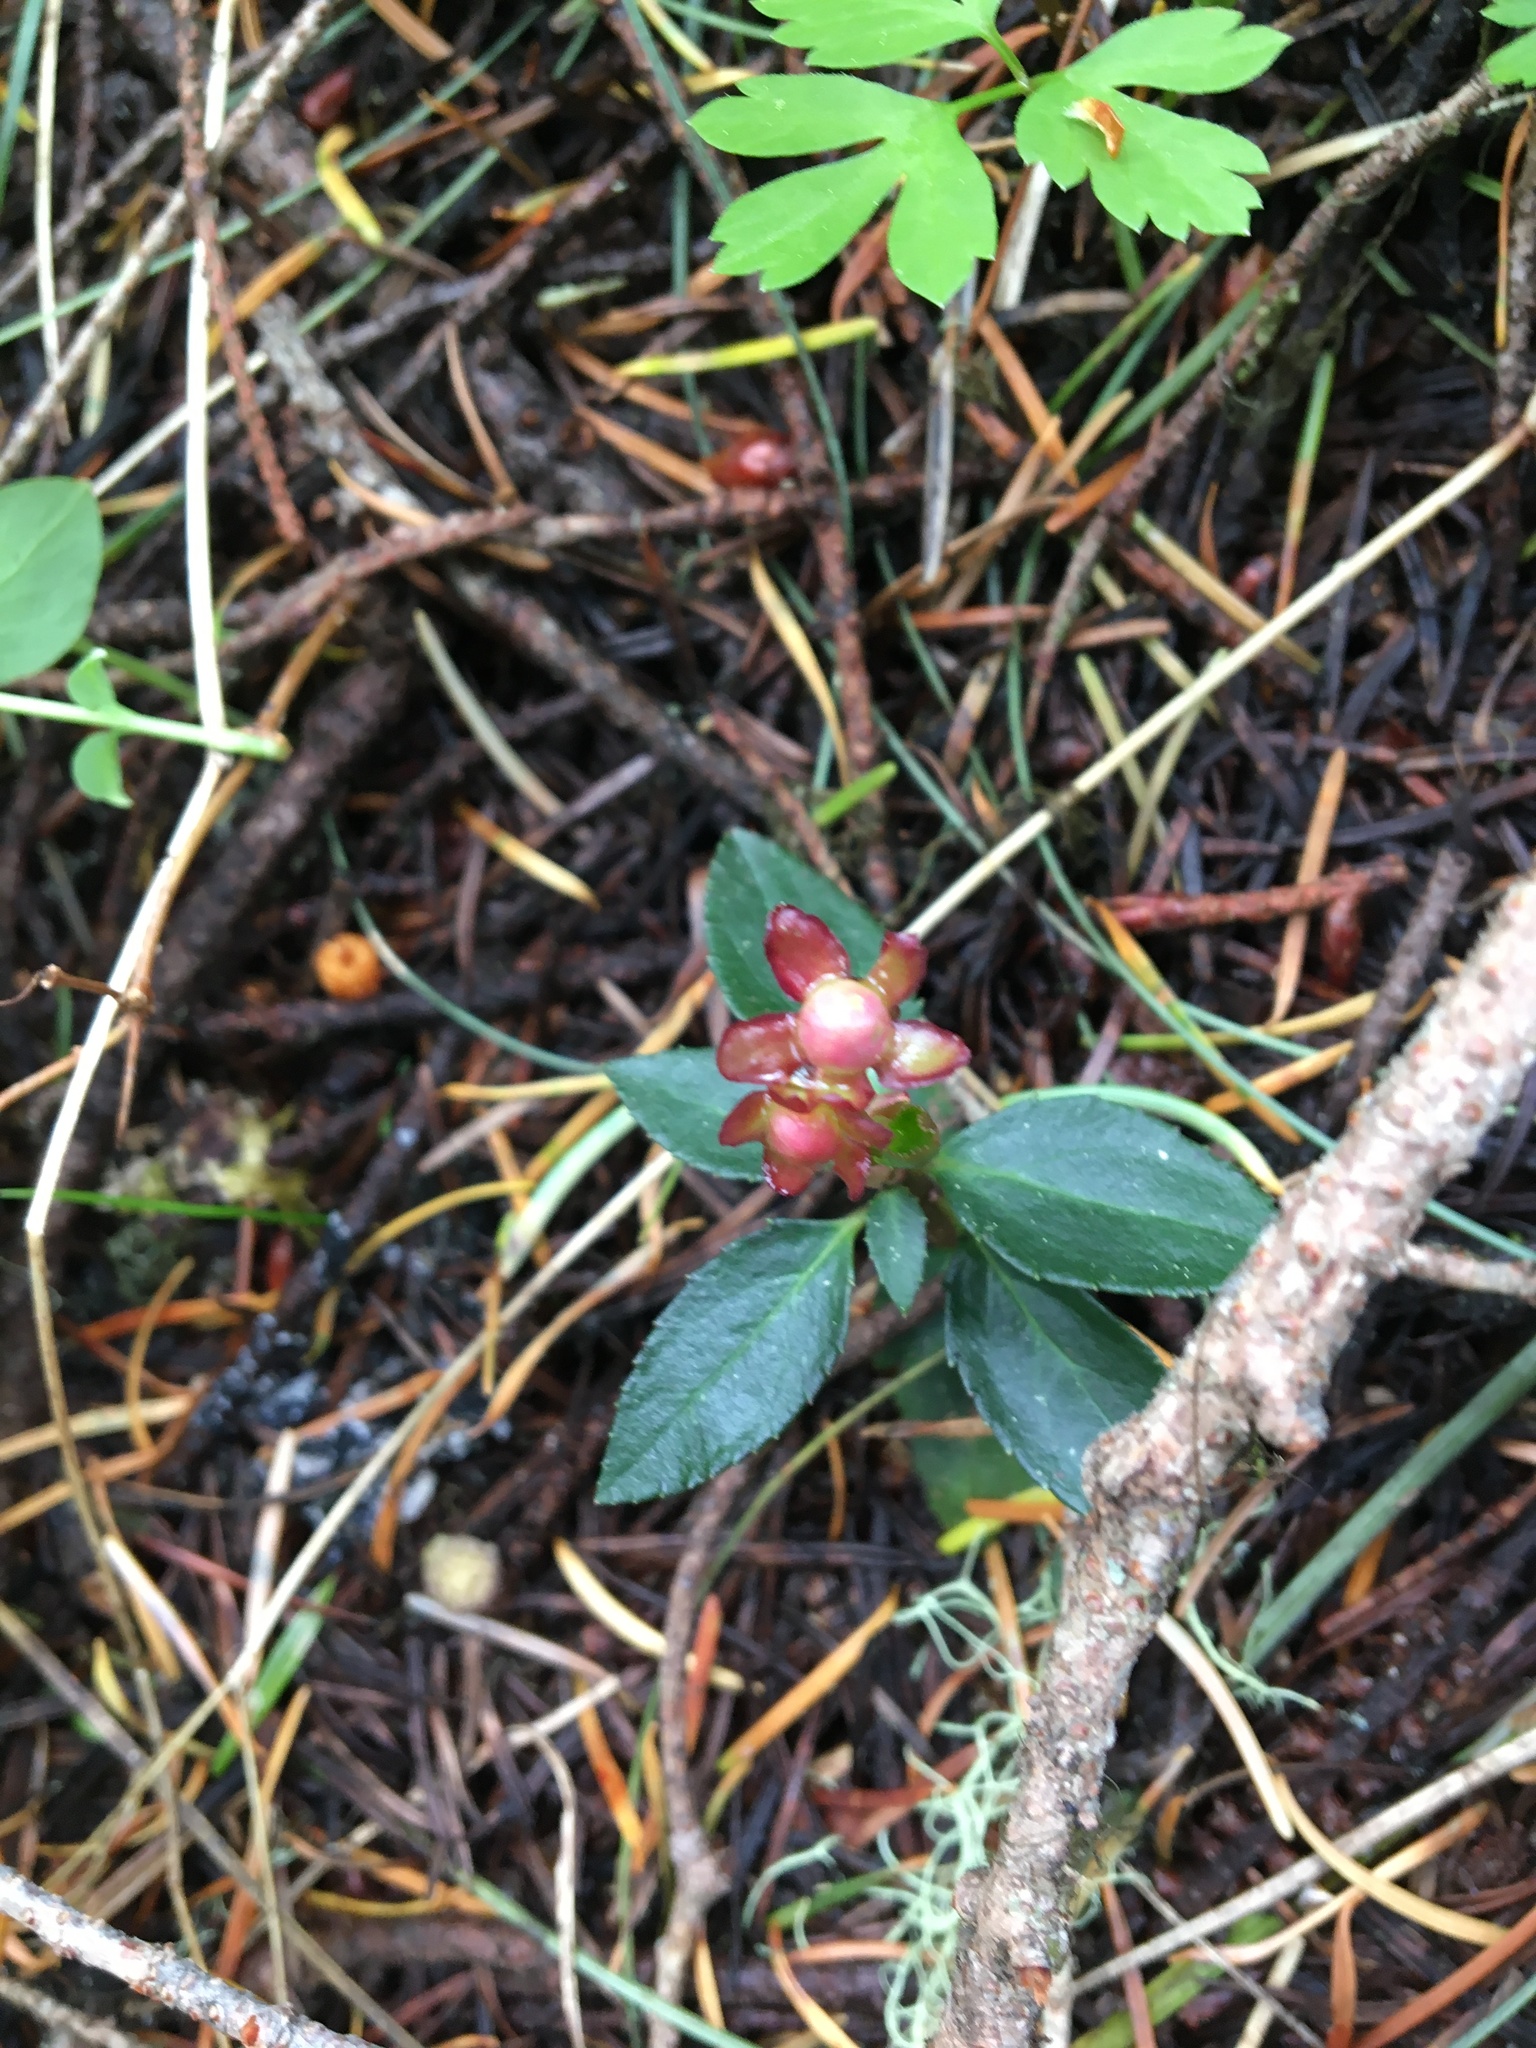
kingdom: Plantae
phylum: Tracheophyta
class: Magnoliopsida
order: Ericales
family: Ericaceae
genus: Chimaphila
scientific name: Chimaphila menziesii
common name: Menzies' pipsissewa
